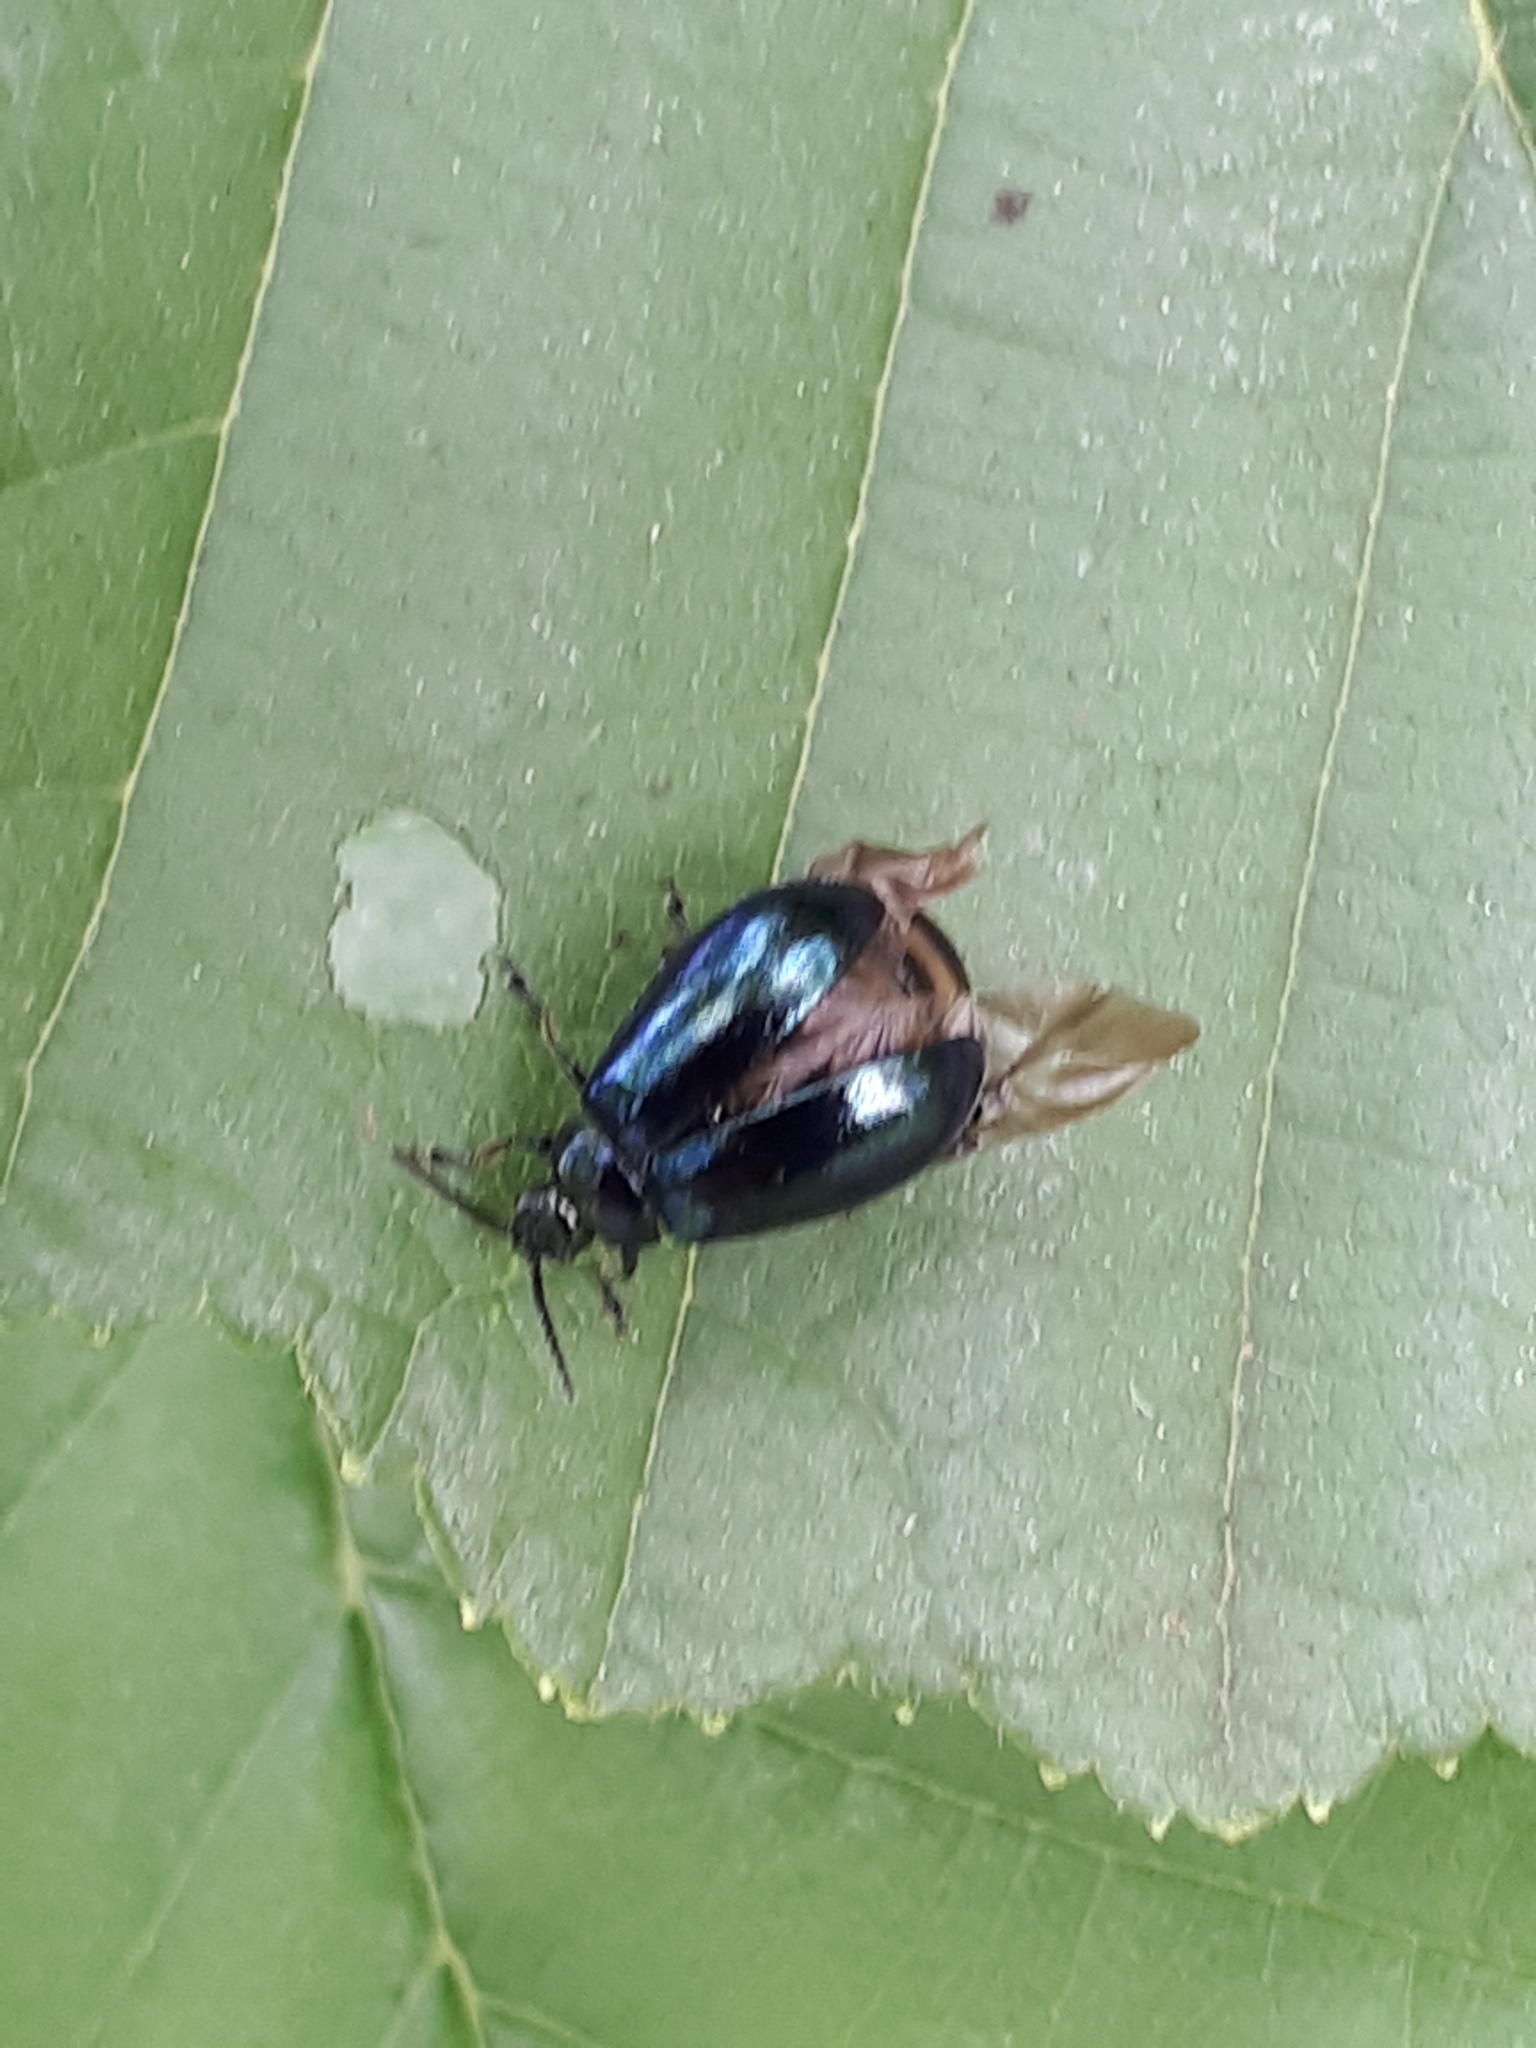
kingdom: Animalia
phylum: Arthropoda
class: Insecta
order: Coleoptera
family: Chrysomelidae
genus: Agelastica
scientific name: Agelastica alni
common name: Alder leaf beetle
